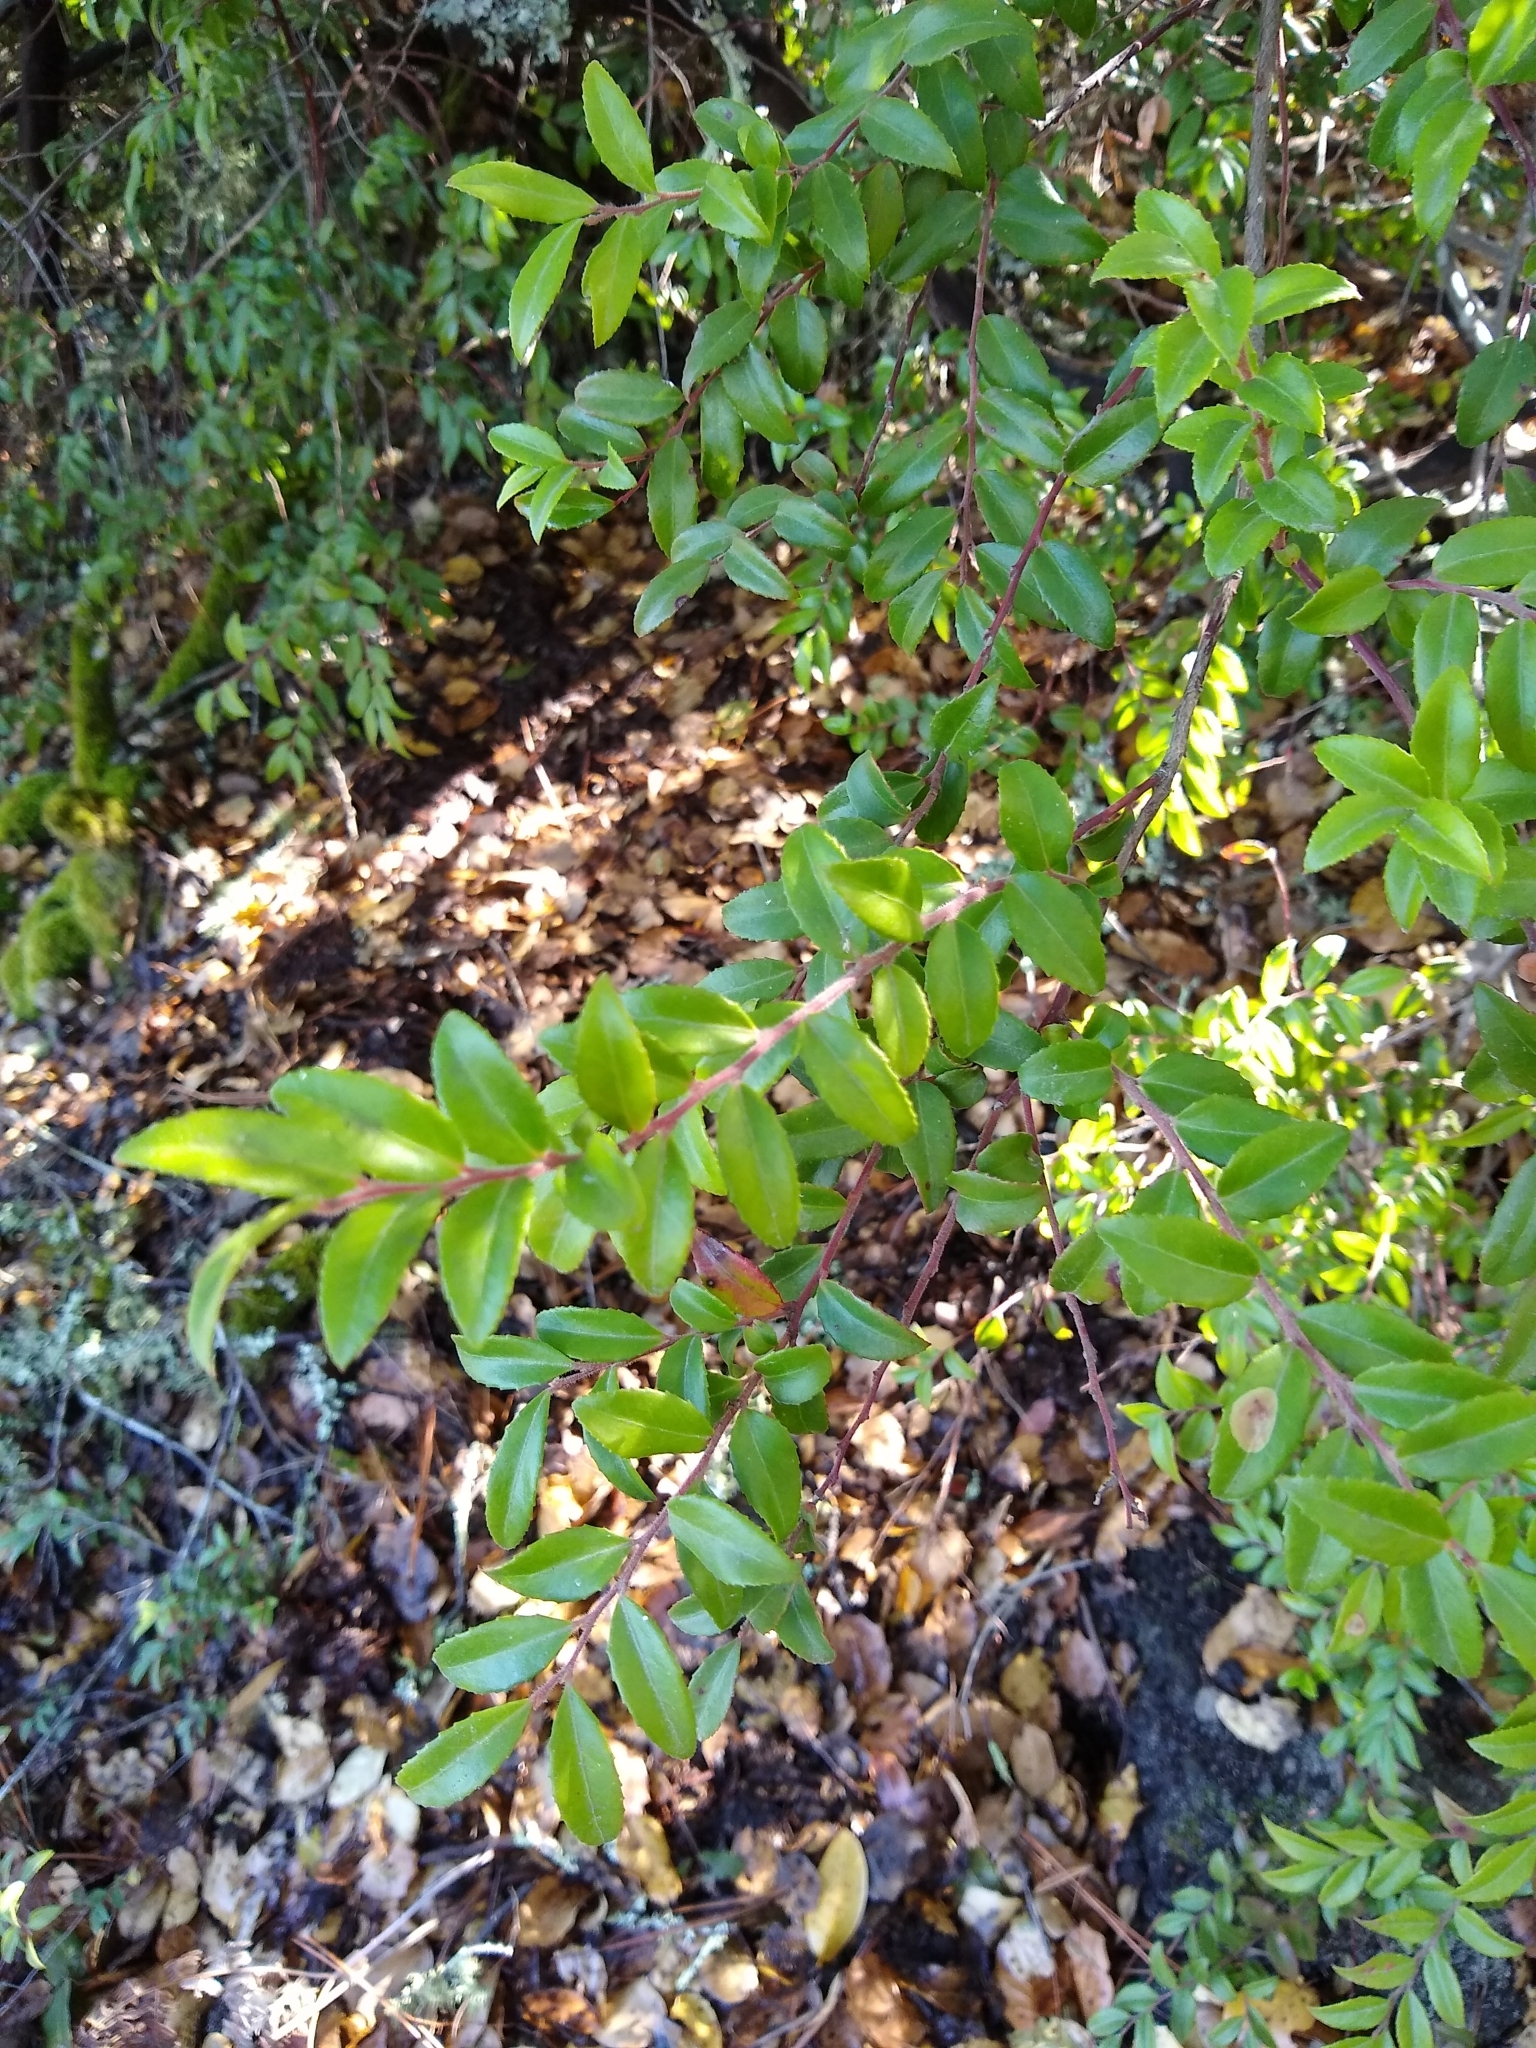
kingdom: Plantae
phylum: Tracheophyta
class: Magnoliopsida
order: Ericales
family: Ericaceae
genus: Vaccinium
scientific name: Vaccinium ovatum
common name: California-huckleberry
